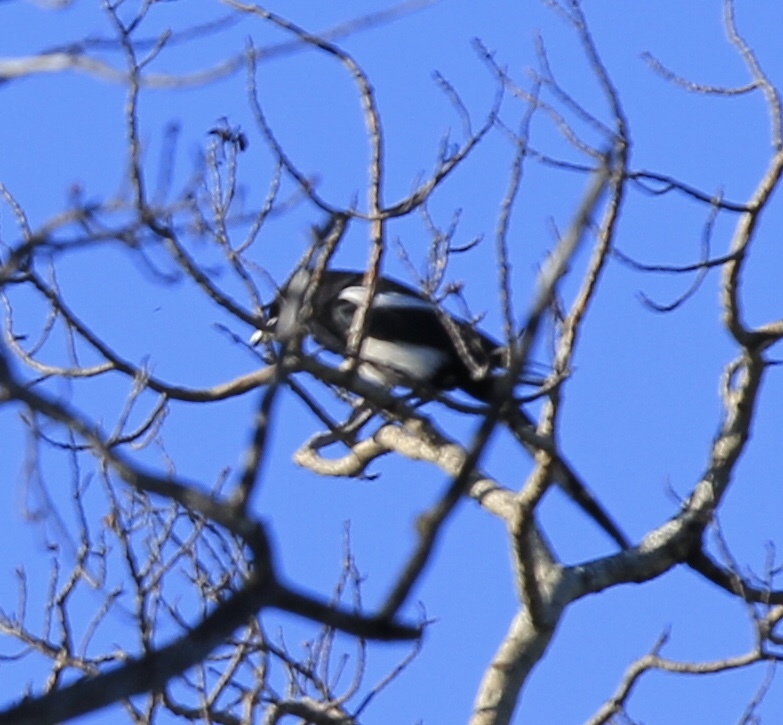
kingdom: Animalia
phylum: Chordata
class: Aves
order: Passeriformes
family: Corvidae
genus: Pica
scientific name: Pica hudsonia
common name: Black-billed magpie
